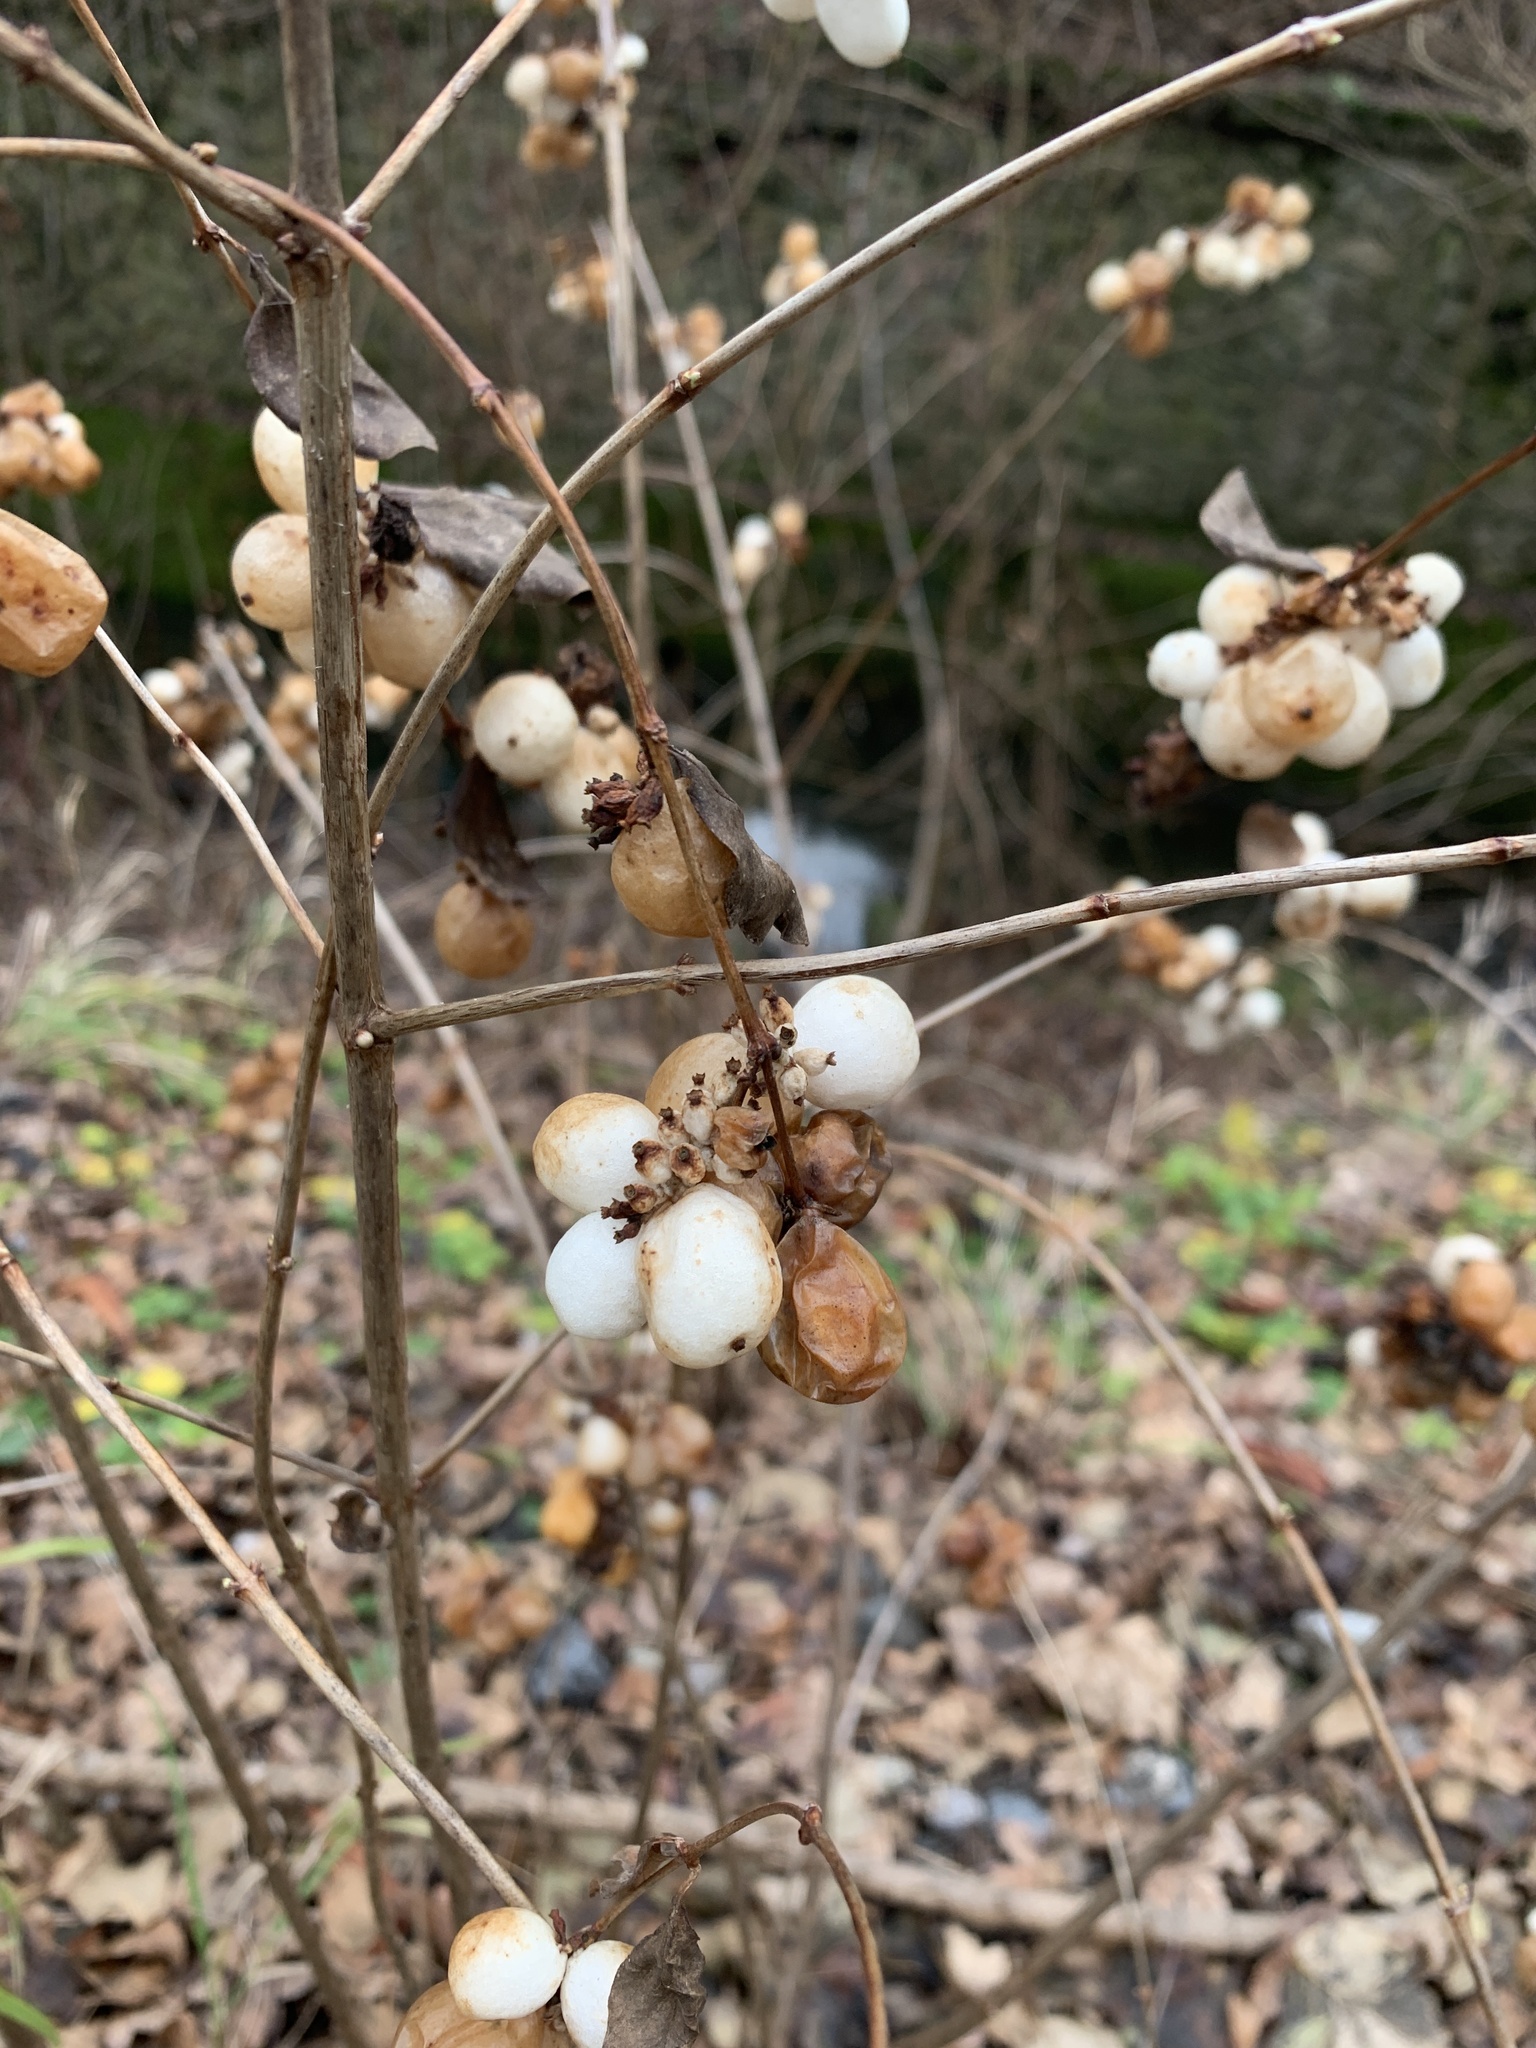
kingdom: Plantae
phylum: Tracheophyta
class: Magnoliopsida
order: Dipsacales
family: Caprifoliaceae
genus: Symphoricarpos
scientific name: Symphoricarpos albus
